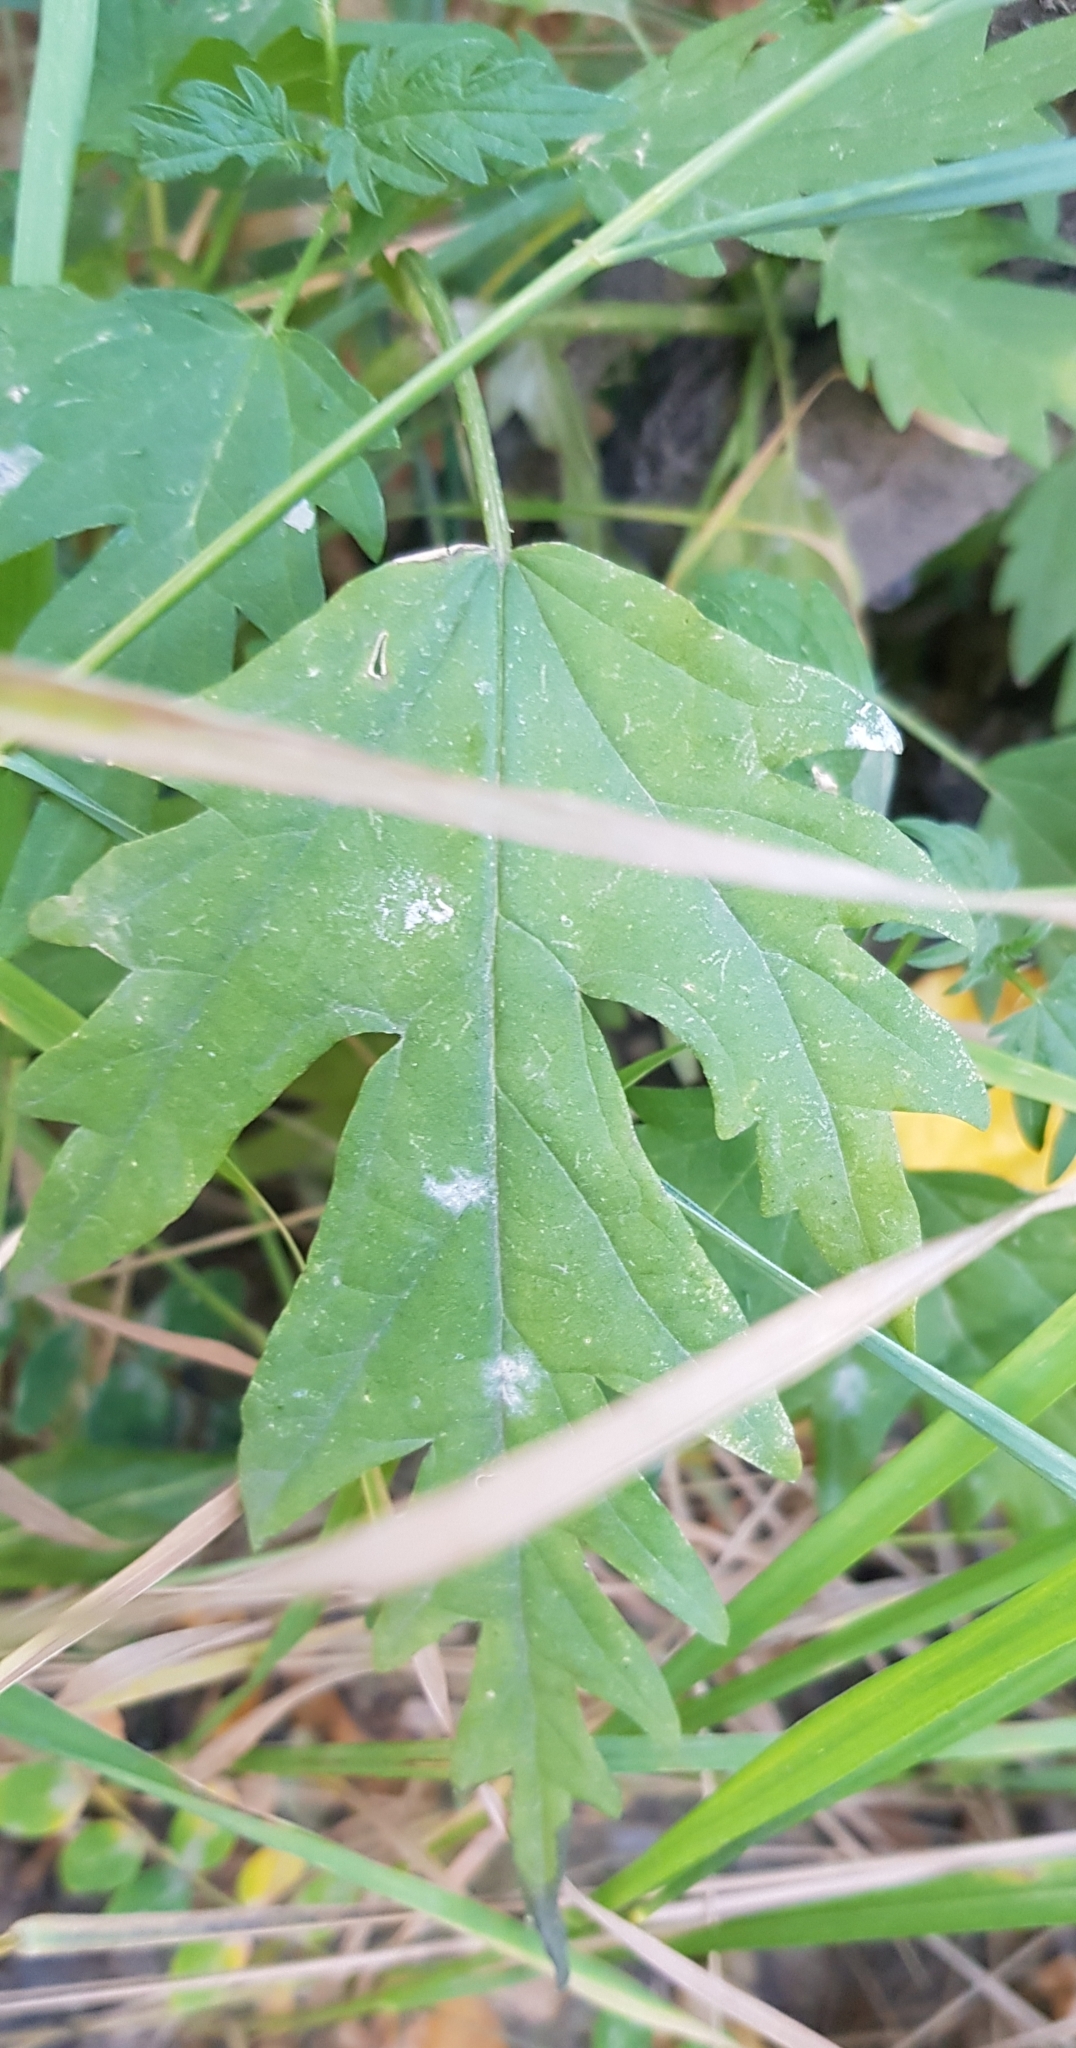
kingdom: Plantae
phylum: Tracheophyta
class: Magnoliopsida
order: Rosales
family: Urticaceae
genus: Urtica
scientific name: Urtica cannabina
